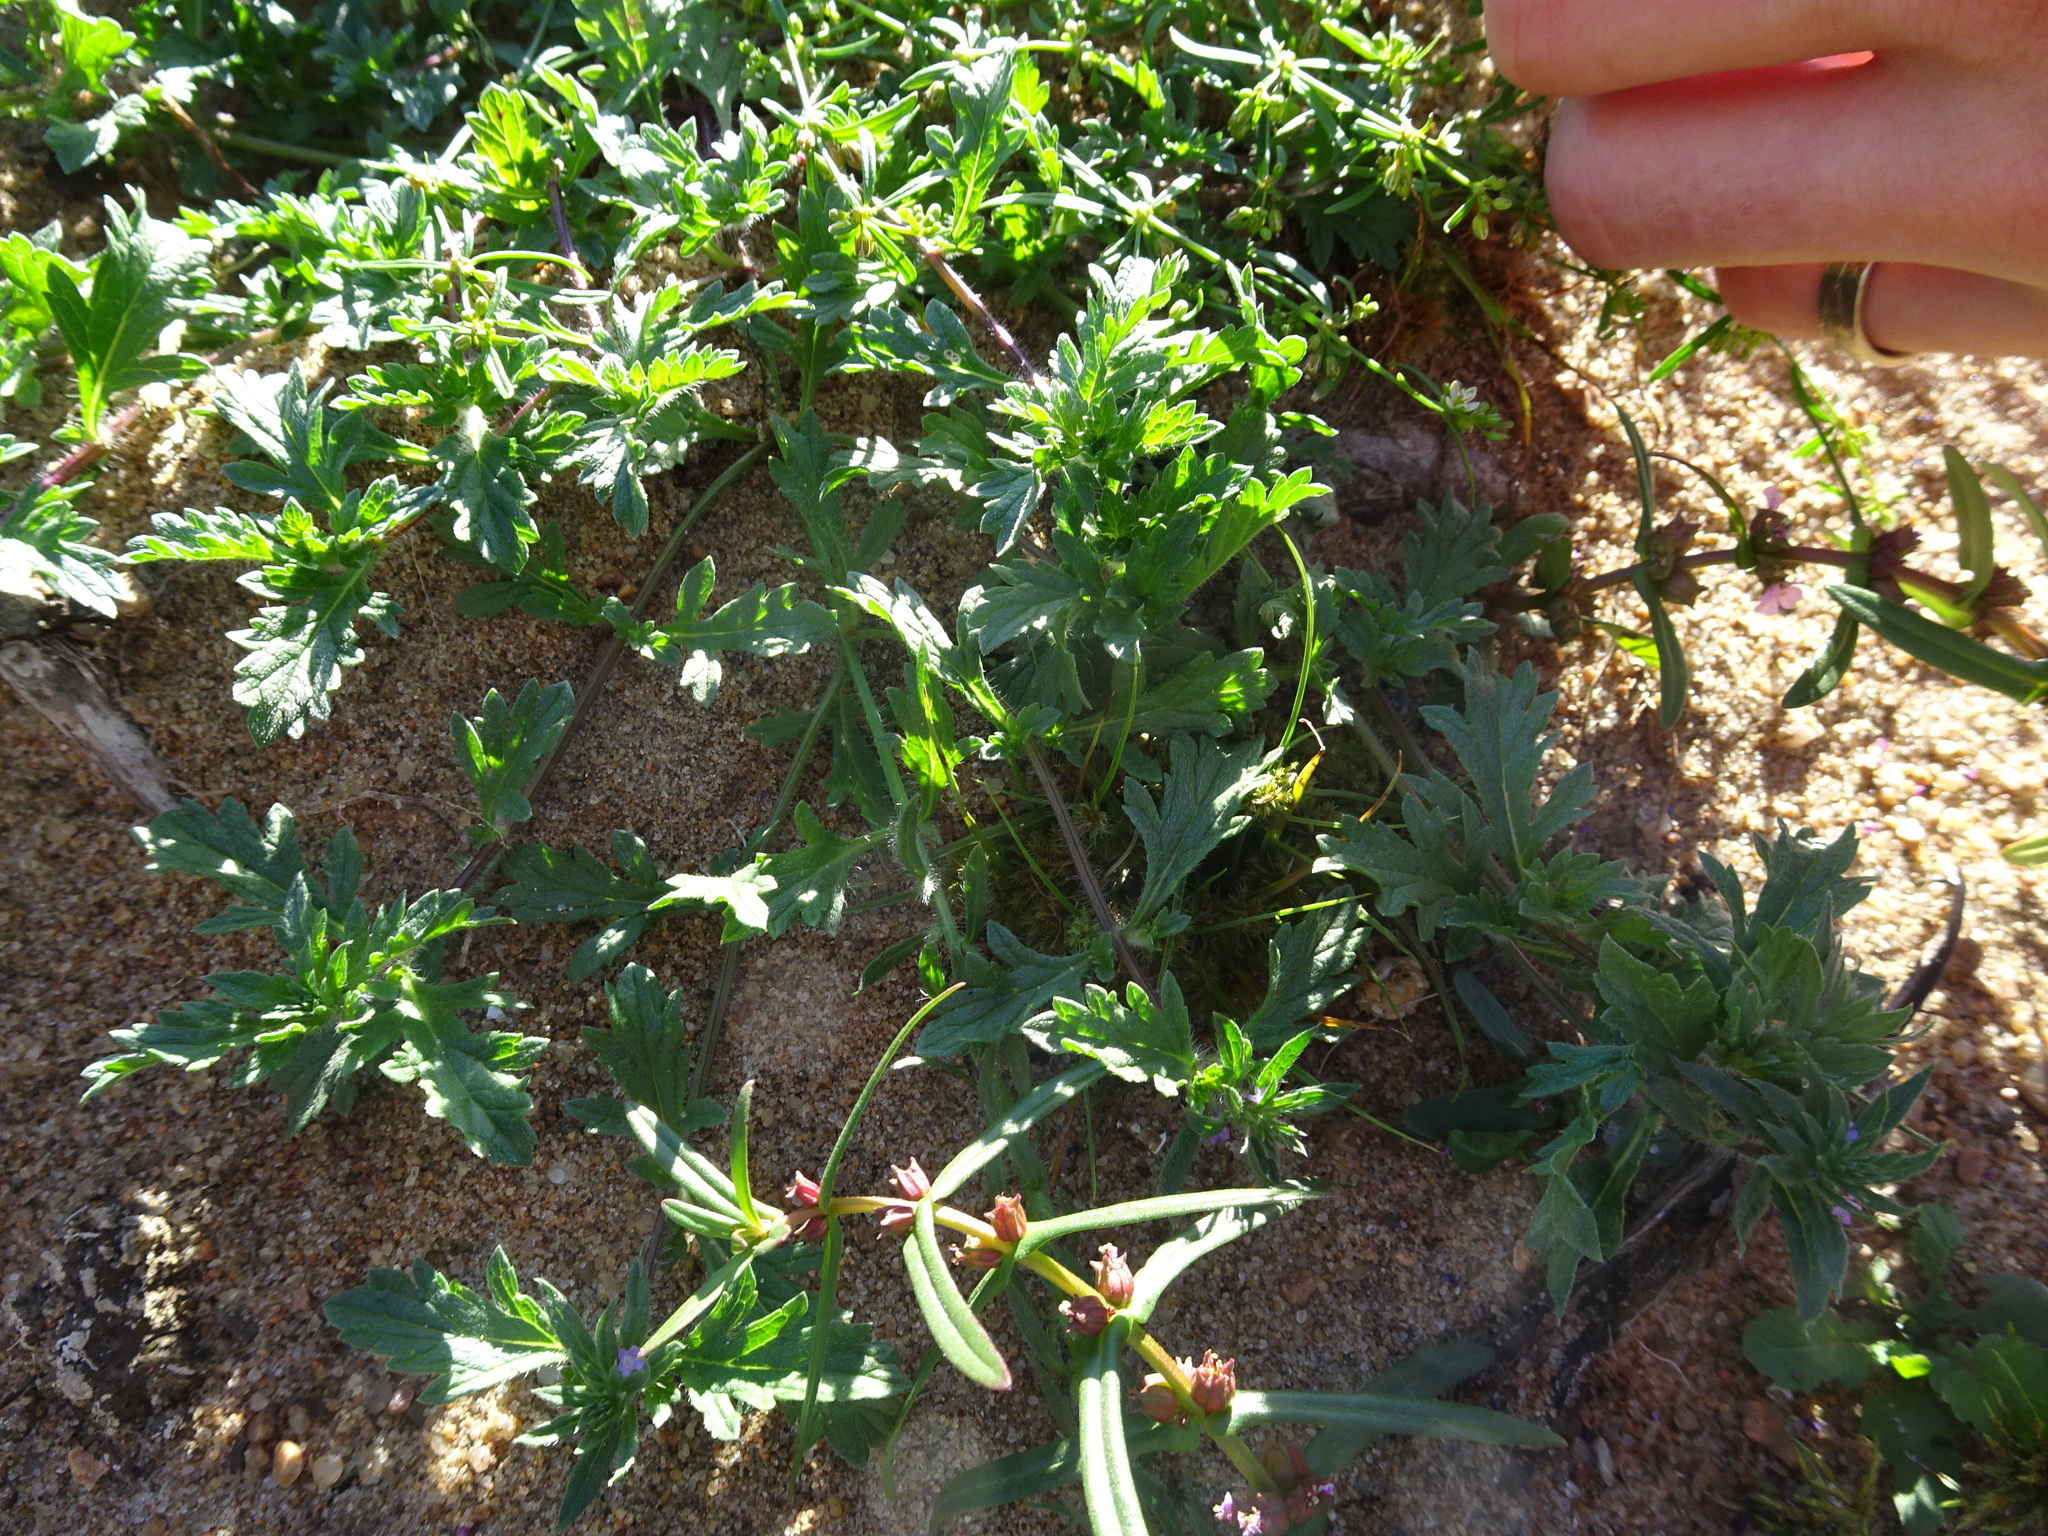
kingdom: Plantae
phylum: Tracheophyta
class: Magnoliopsida
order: Lamiales
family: Verbenaceae
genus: Verbena
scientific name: Verbena bracteata
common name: Bracted vervain
